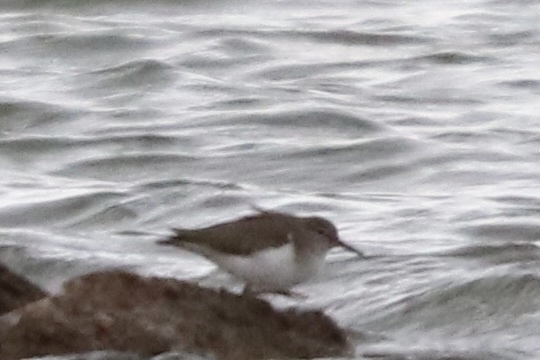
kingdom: Animalia
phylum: Chordata
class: Aves
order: Charadriiformes
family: Scolopacidae
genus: Actitis
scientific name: Actitis macularius
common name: Spotted sandpiper
